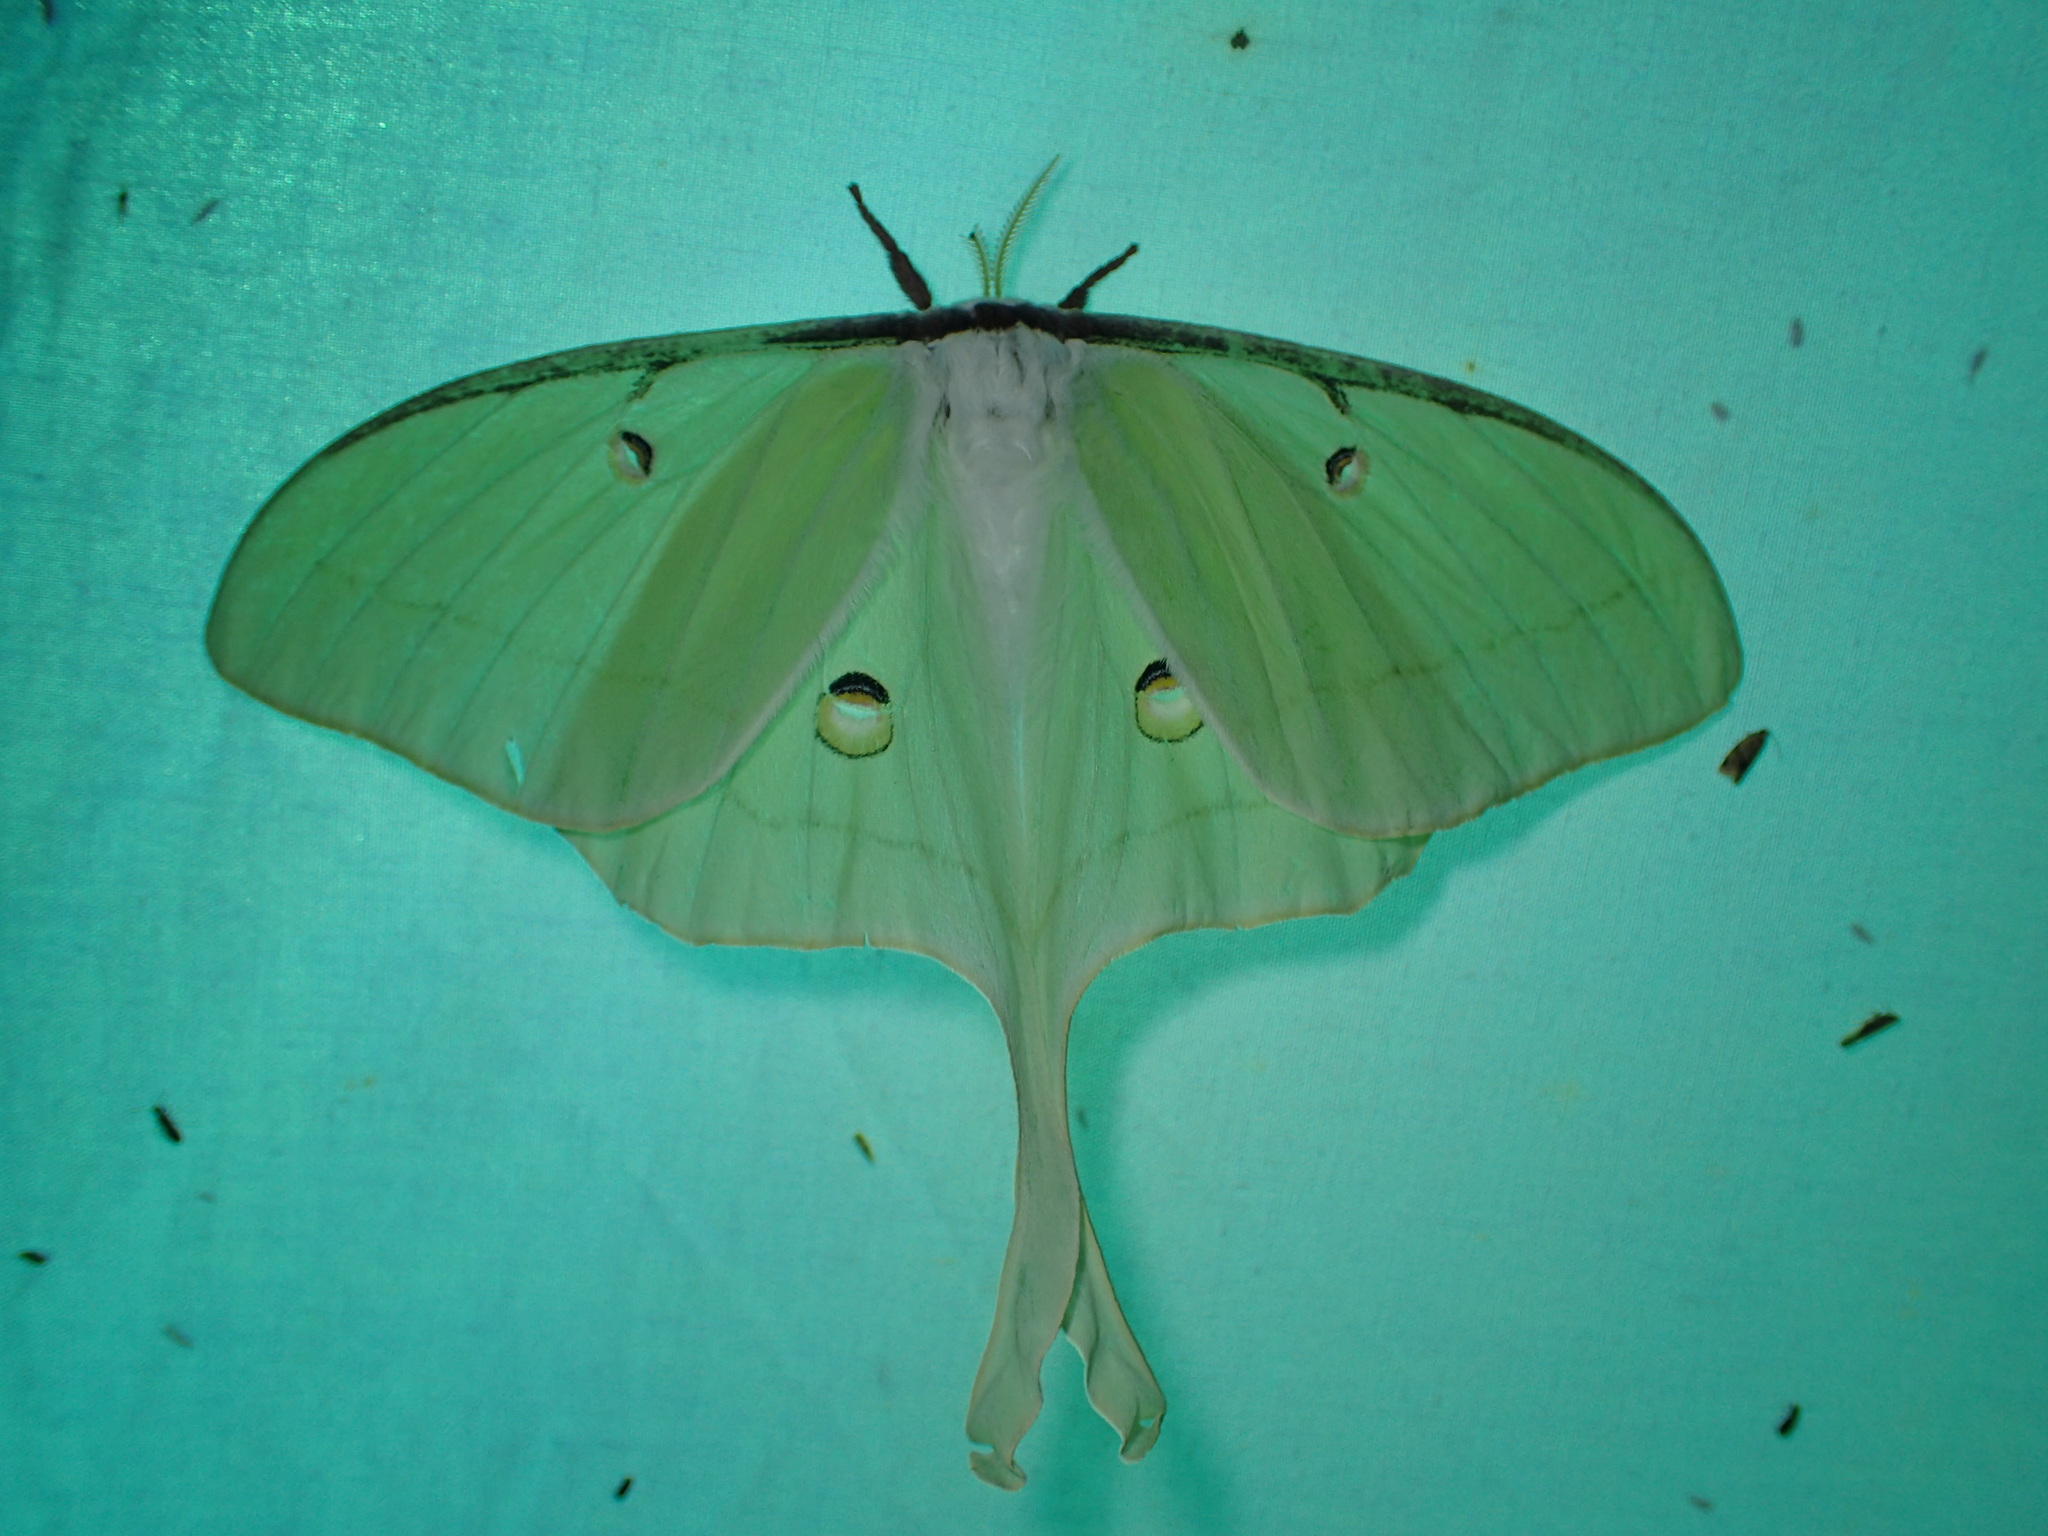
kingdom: Animalia
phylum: Arthropoda
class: Insecta
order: Lepidoptera
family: Saturniidae
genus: Actias
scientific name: Actias luna
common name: Luna moth
